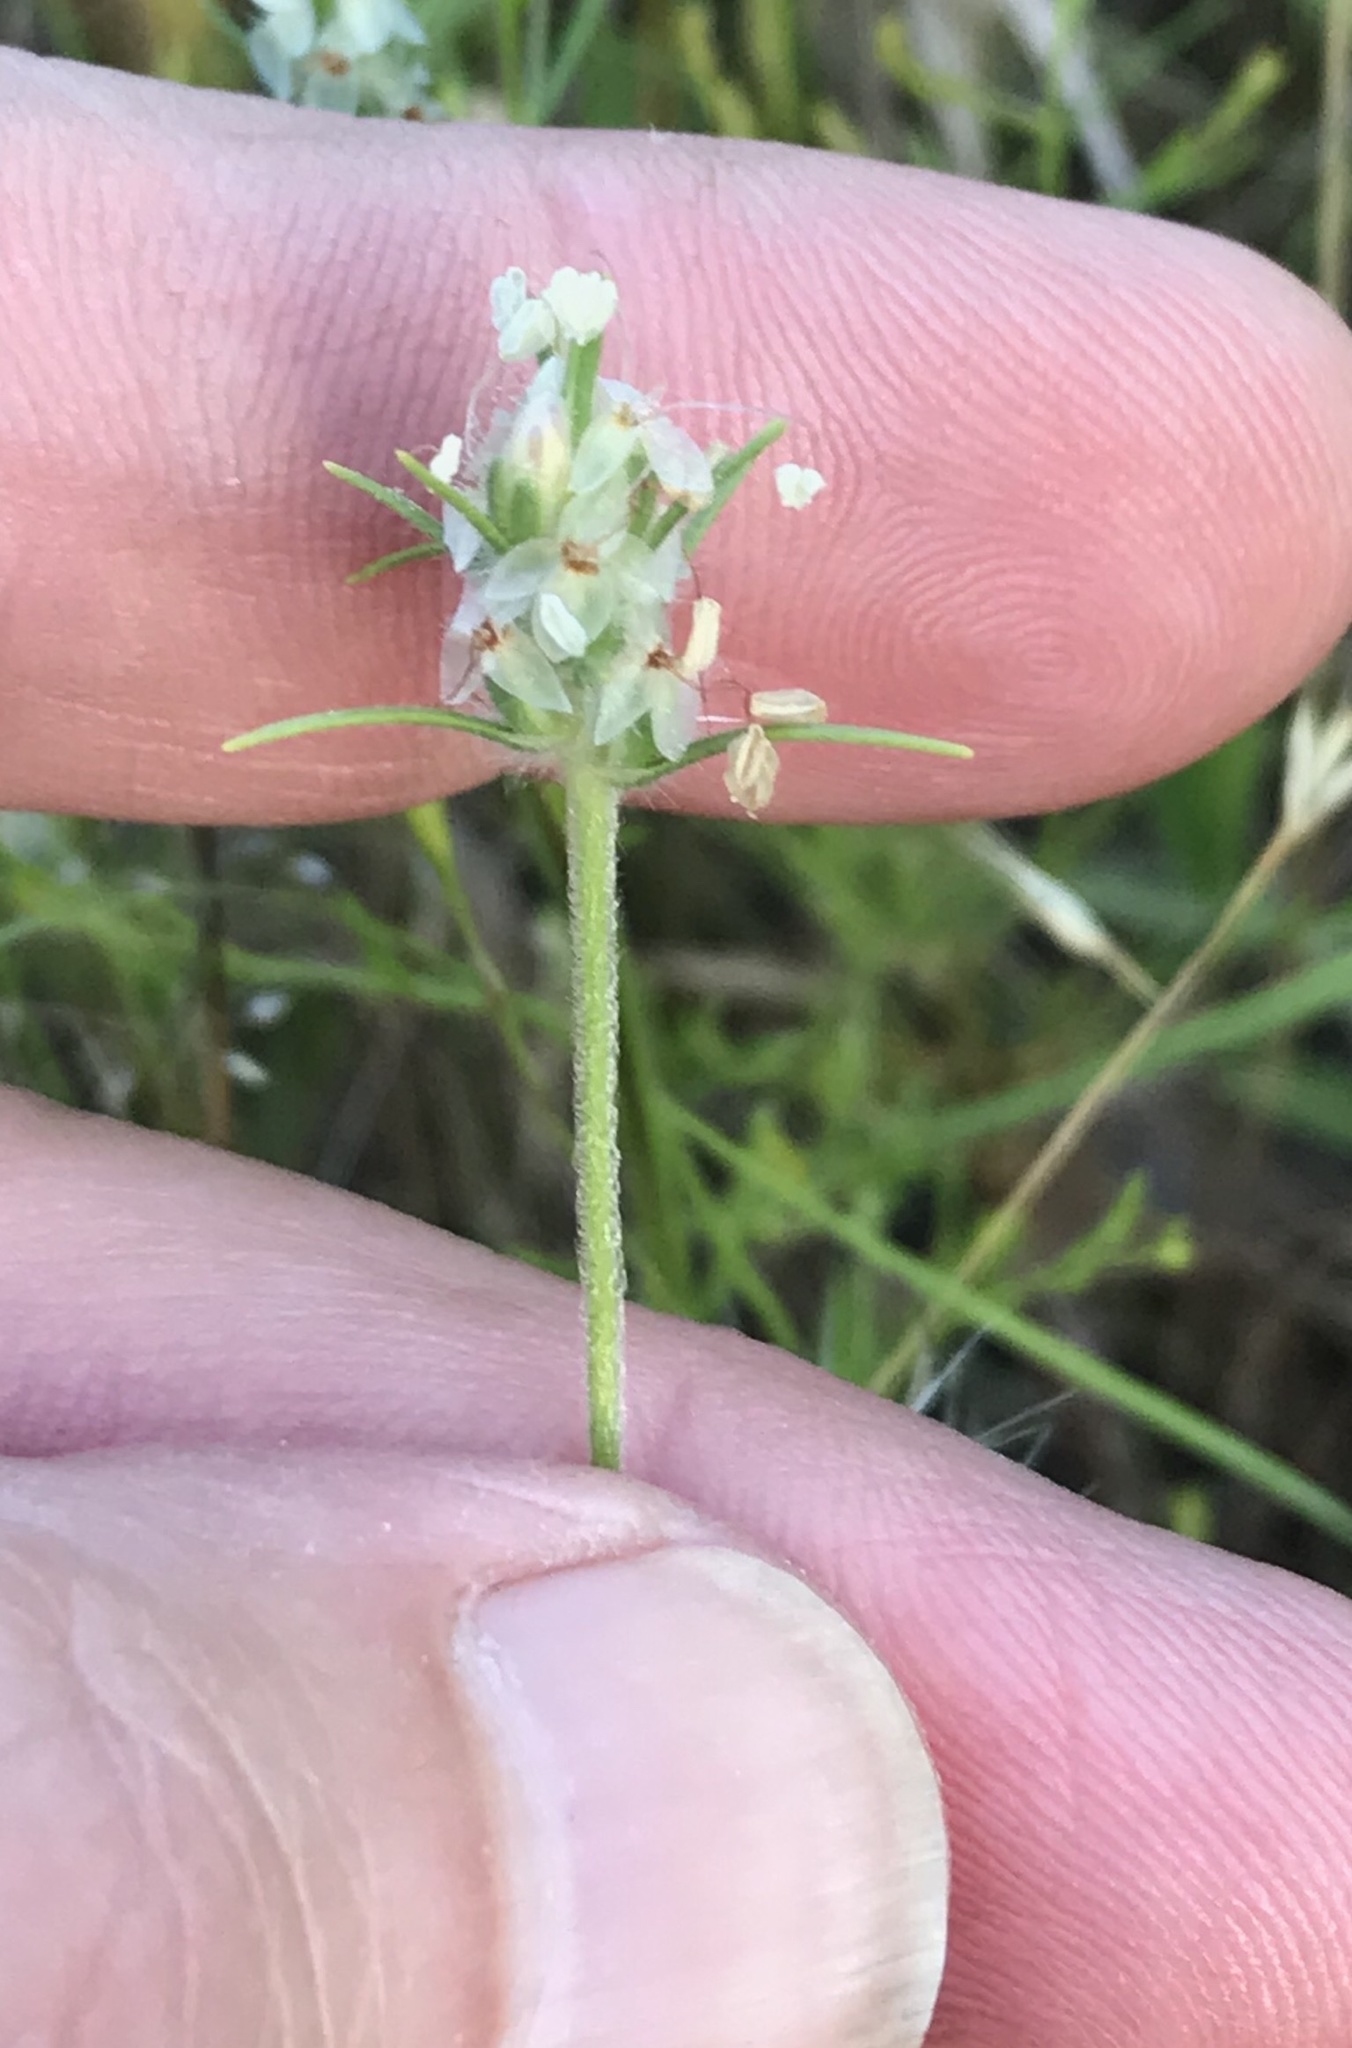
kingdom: Plantae
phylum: Tracheophyta
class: Magnoliopsida
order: Lamiales
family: Plantaginaceae
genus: Plantago
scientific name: Plantago aristata
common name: Bracted plantain
